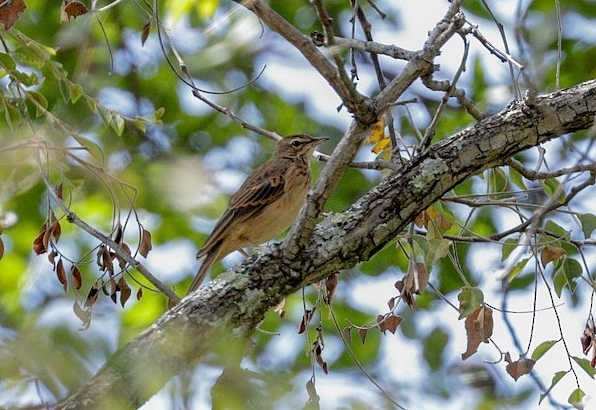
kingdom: Animalia
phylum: Chordata
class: Aves
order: Passeriformes
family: Motacillidae
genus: Anthus
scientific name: Anthus nyassae
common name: Wood pipit
